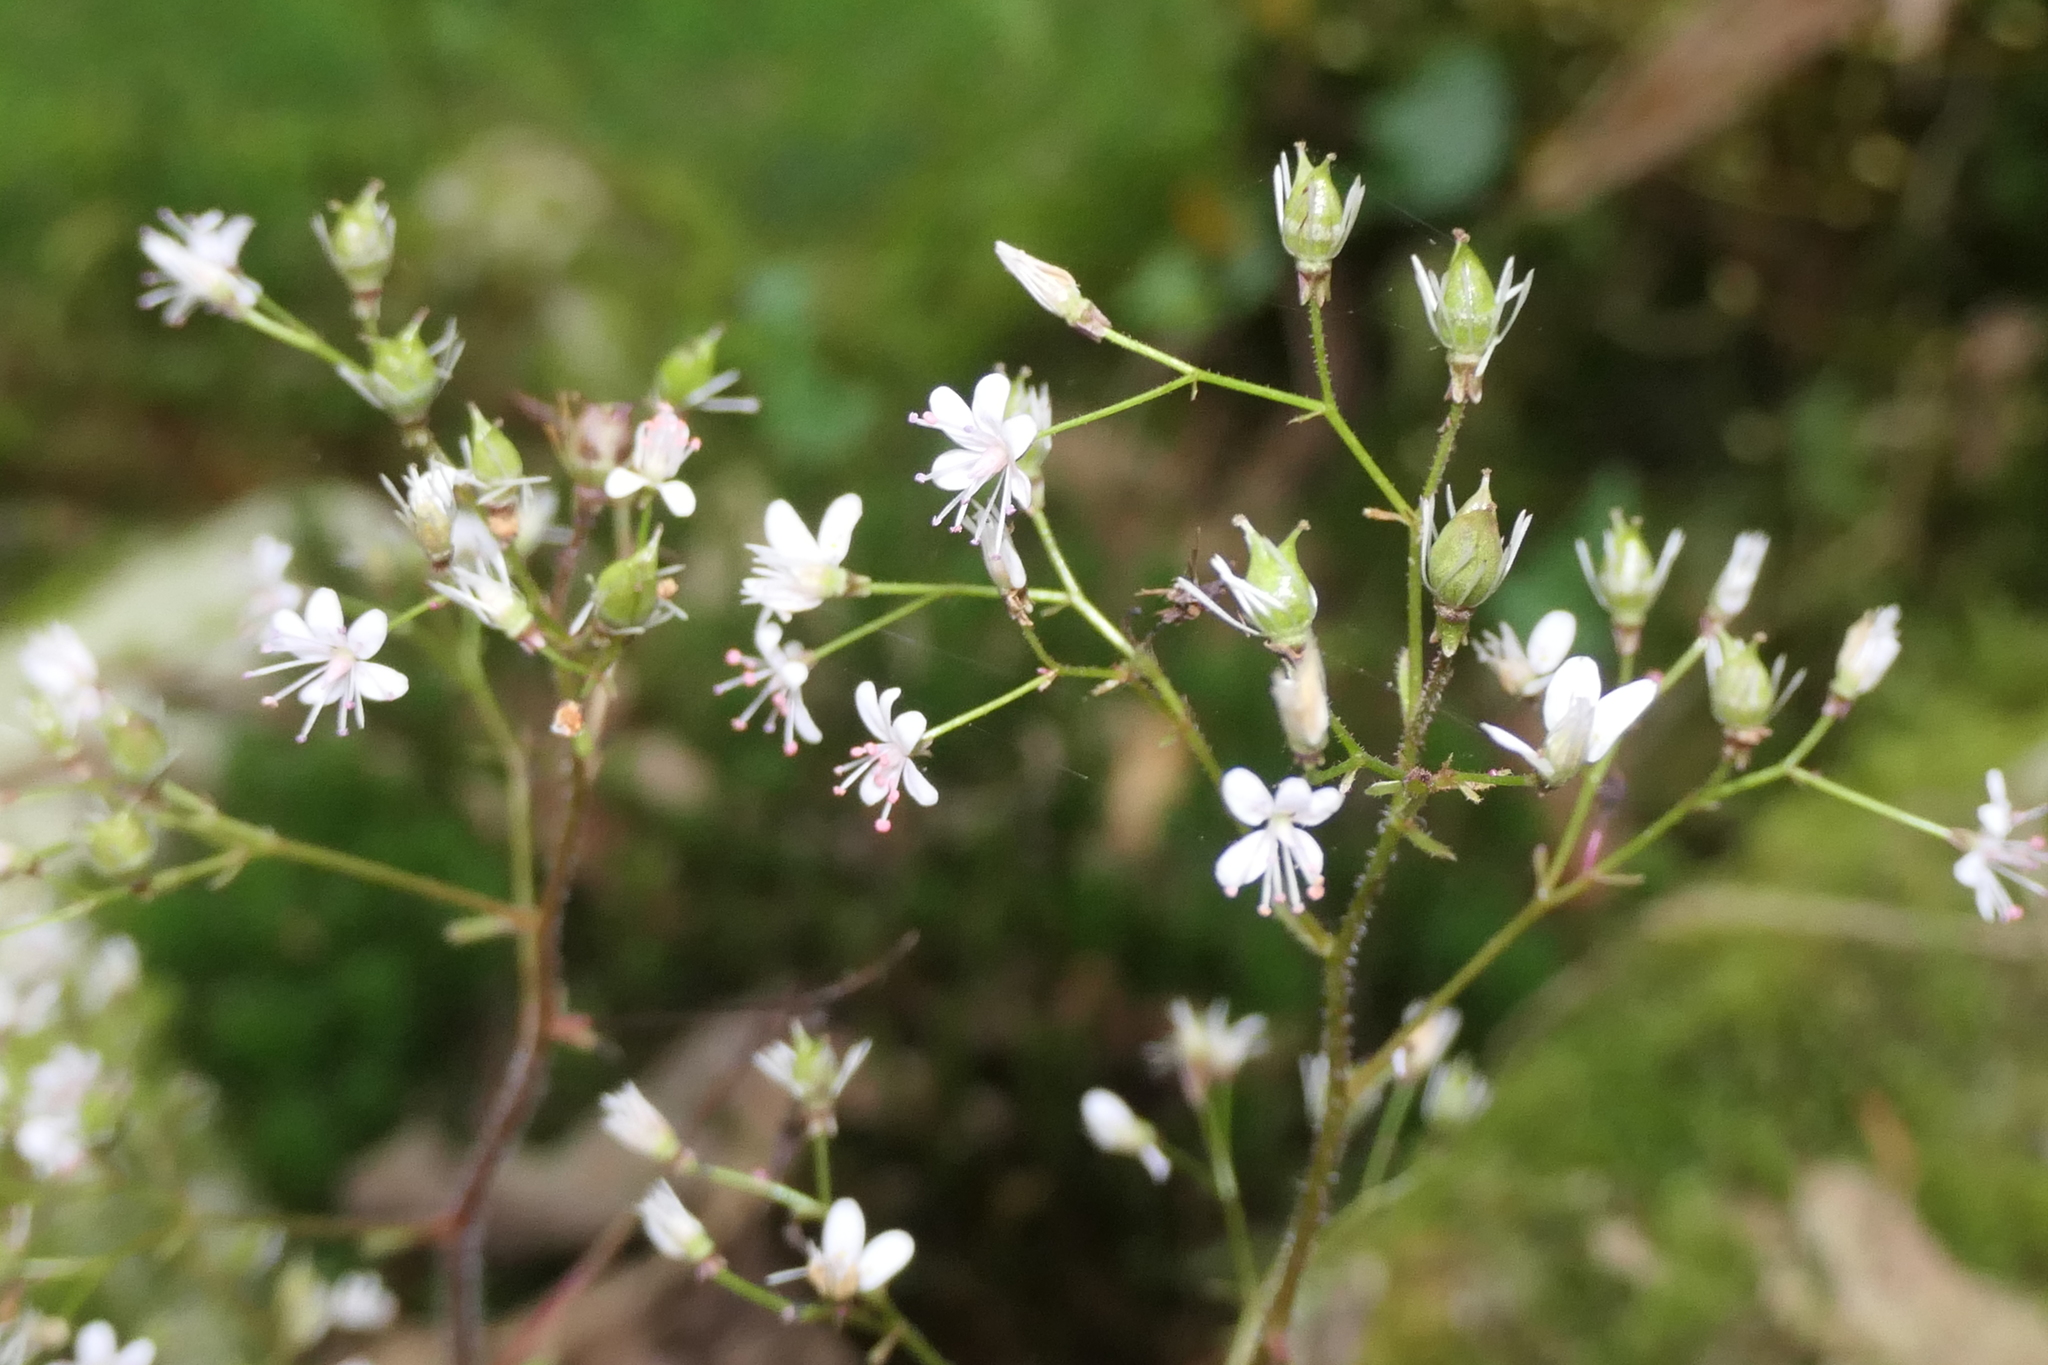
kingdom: Plantae
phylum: Tracheophyta
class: Magnoliopsida
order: Saxifragales
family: Saxifragaceae
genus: Saxifraga
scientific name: Saxifraga spathularis
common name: St patrick's-cabbage
